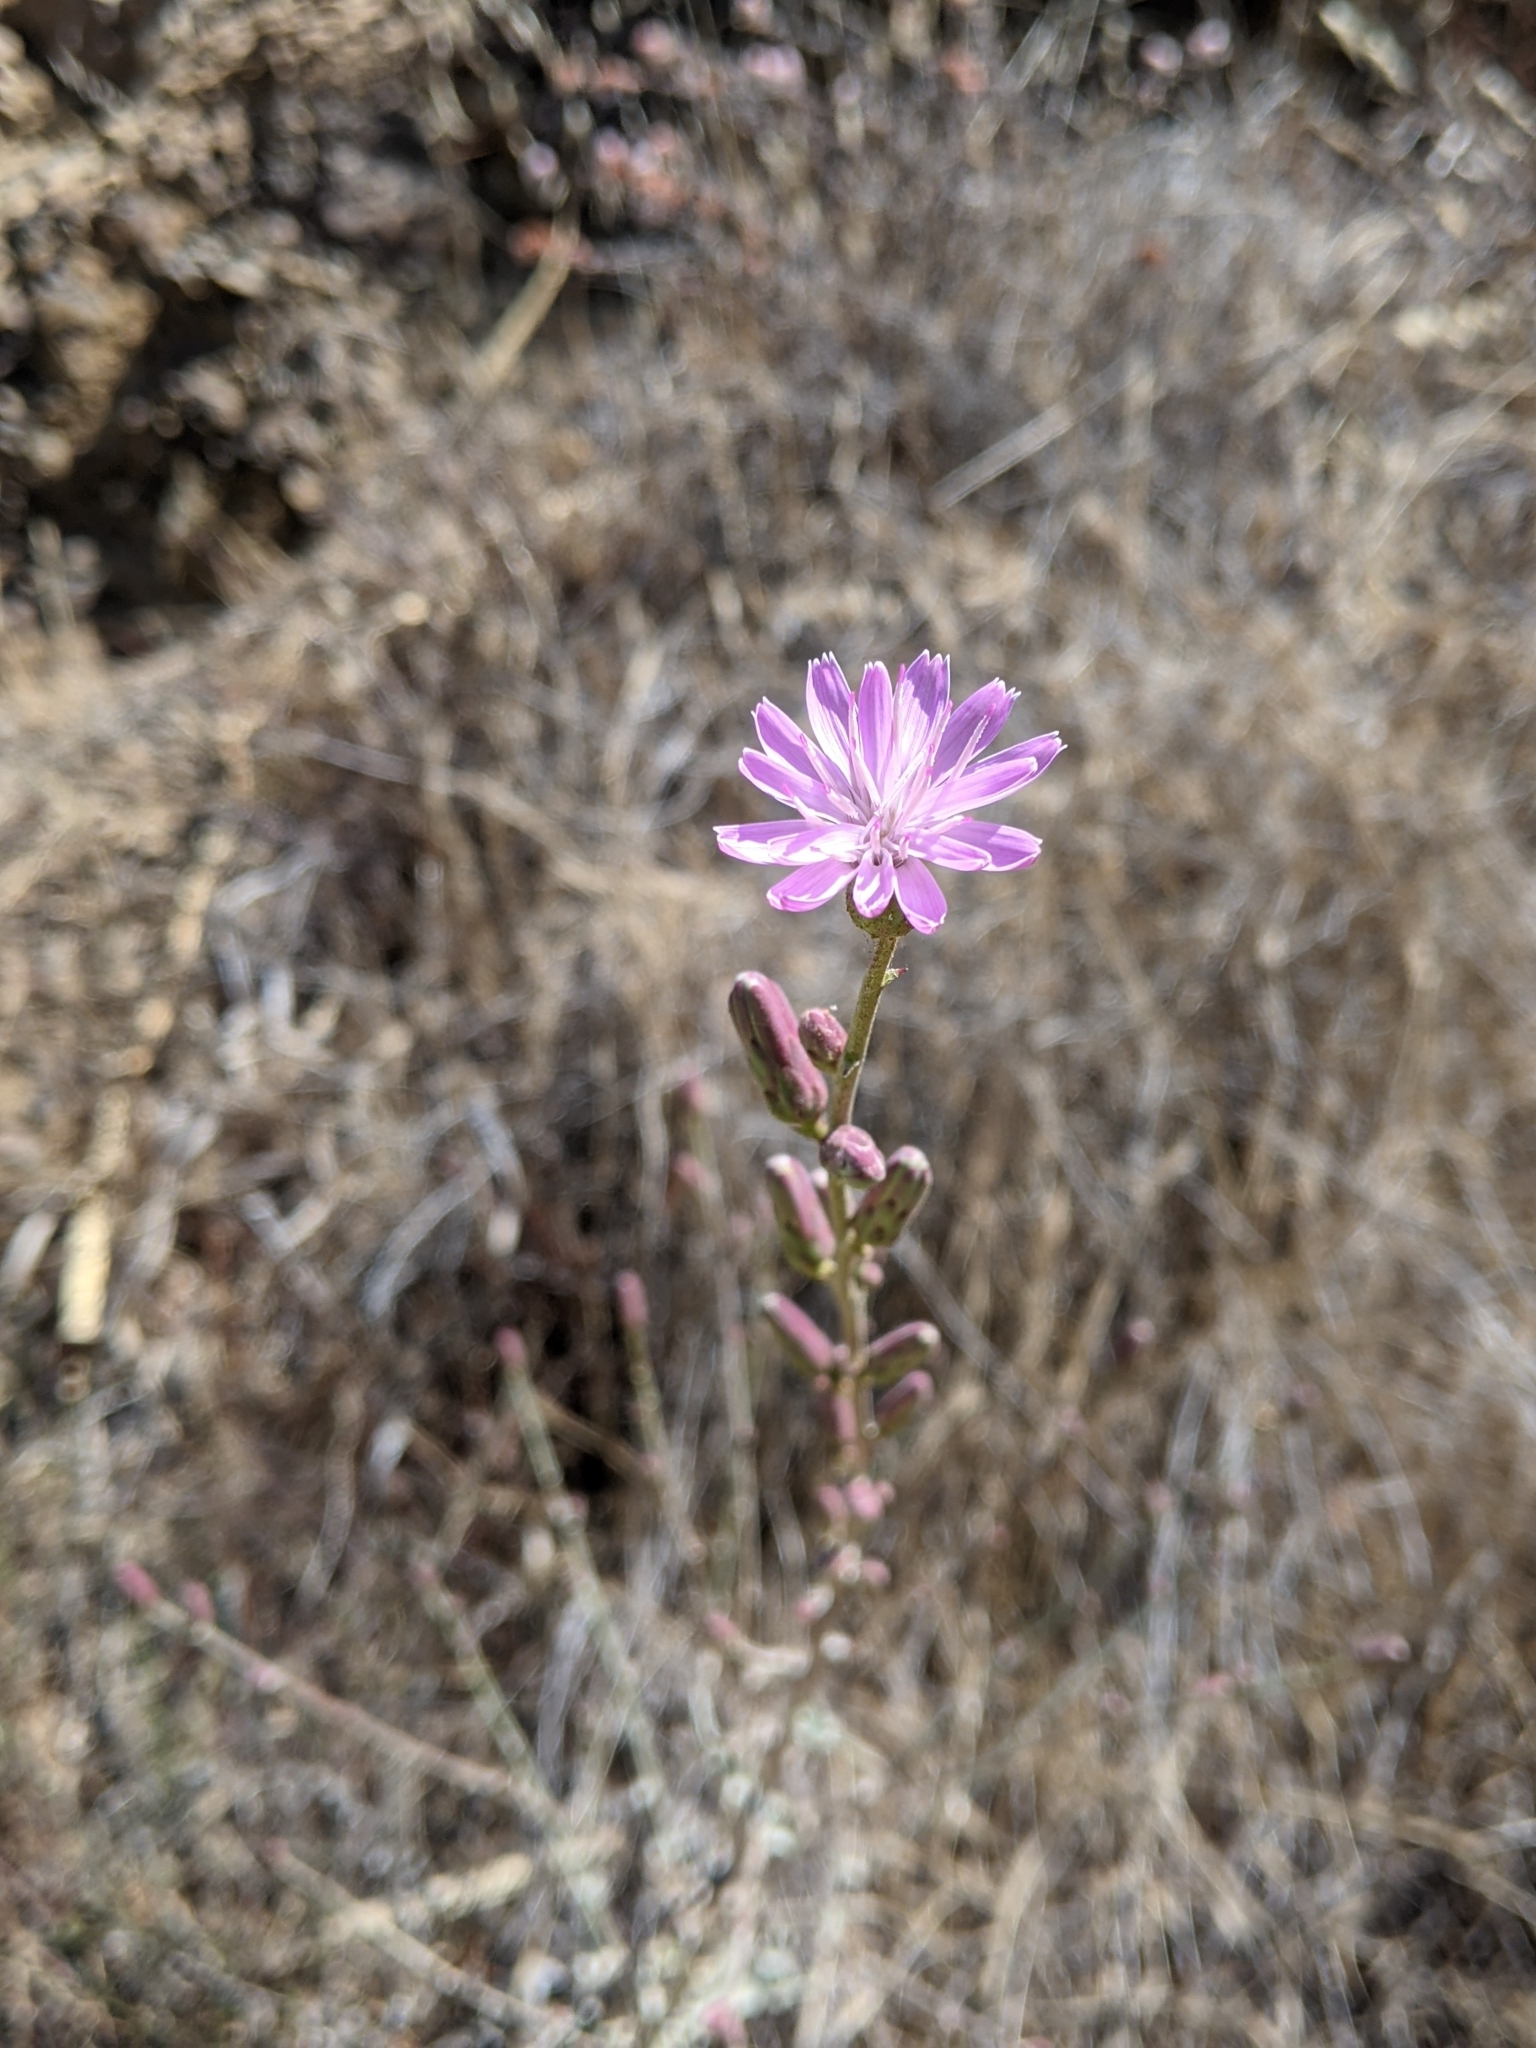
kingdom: Plantae
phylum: Tracheophyta
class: Magnoliopsida
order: Asterales
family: Asteraceae
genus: Stephanomeria
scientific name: Stephanomeria cichoriacea
